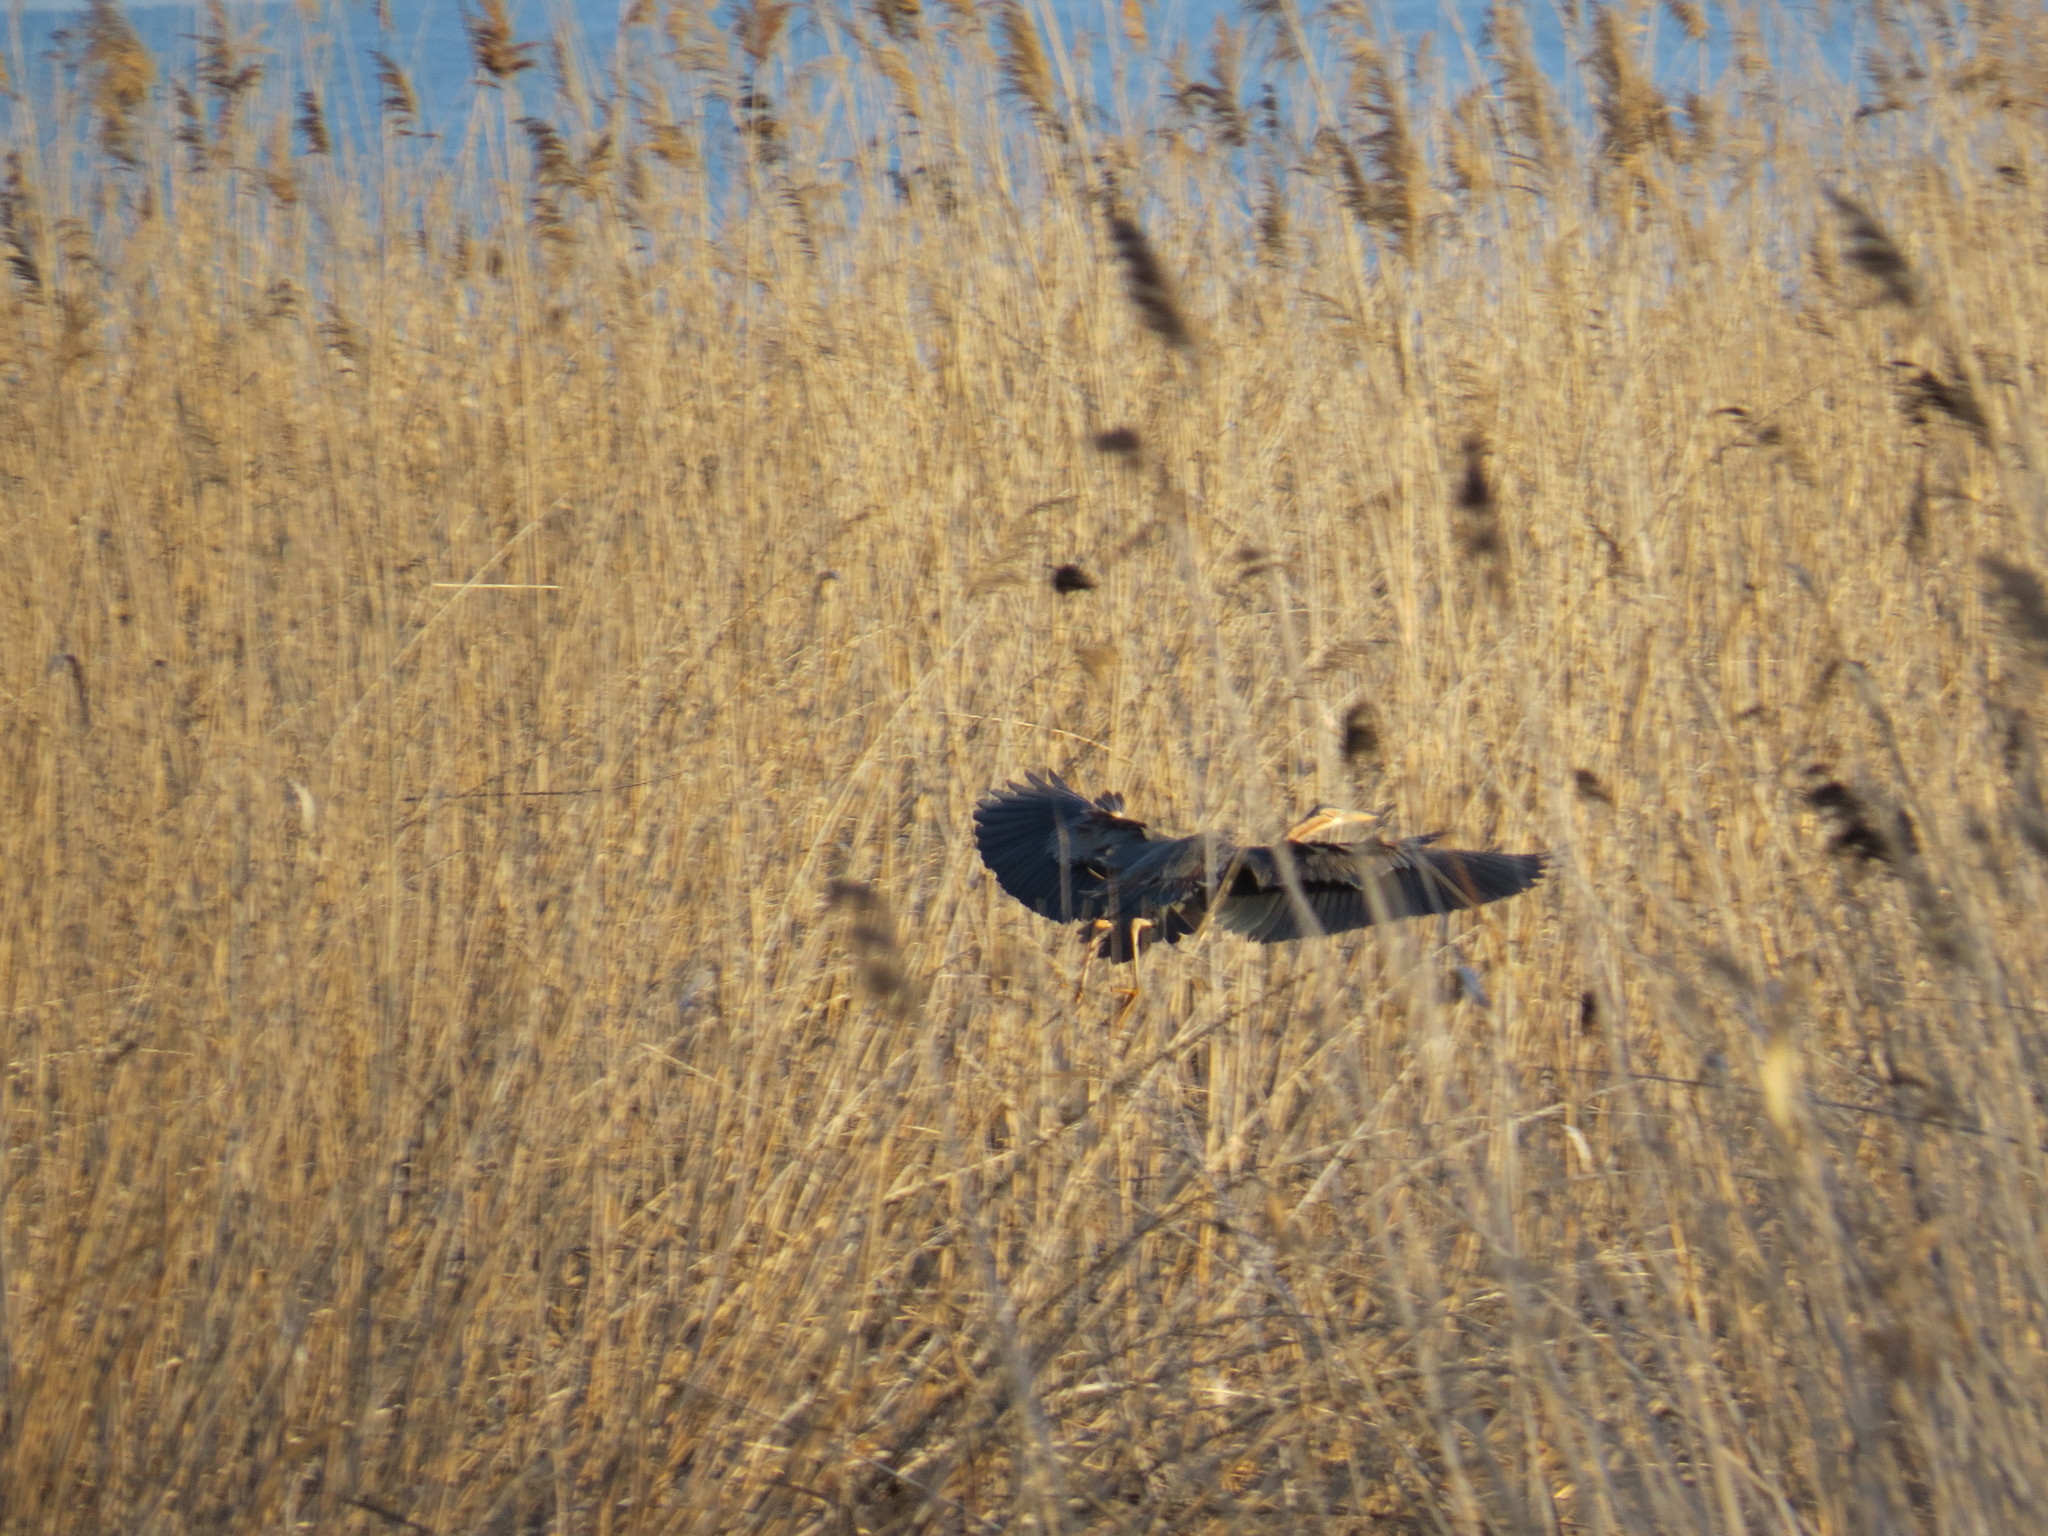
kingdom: Animalia
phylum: Chordata
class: Aves
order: Pelecaniformes
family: Ardeidae
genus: Ardea
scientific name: Ardea purpurea
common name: Purple heron
